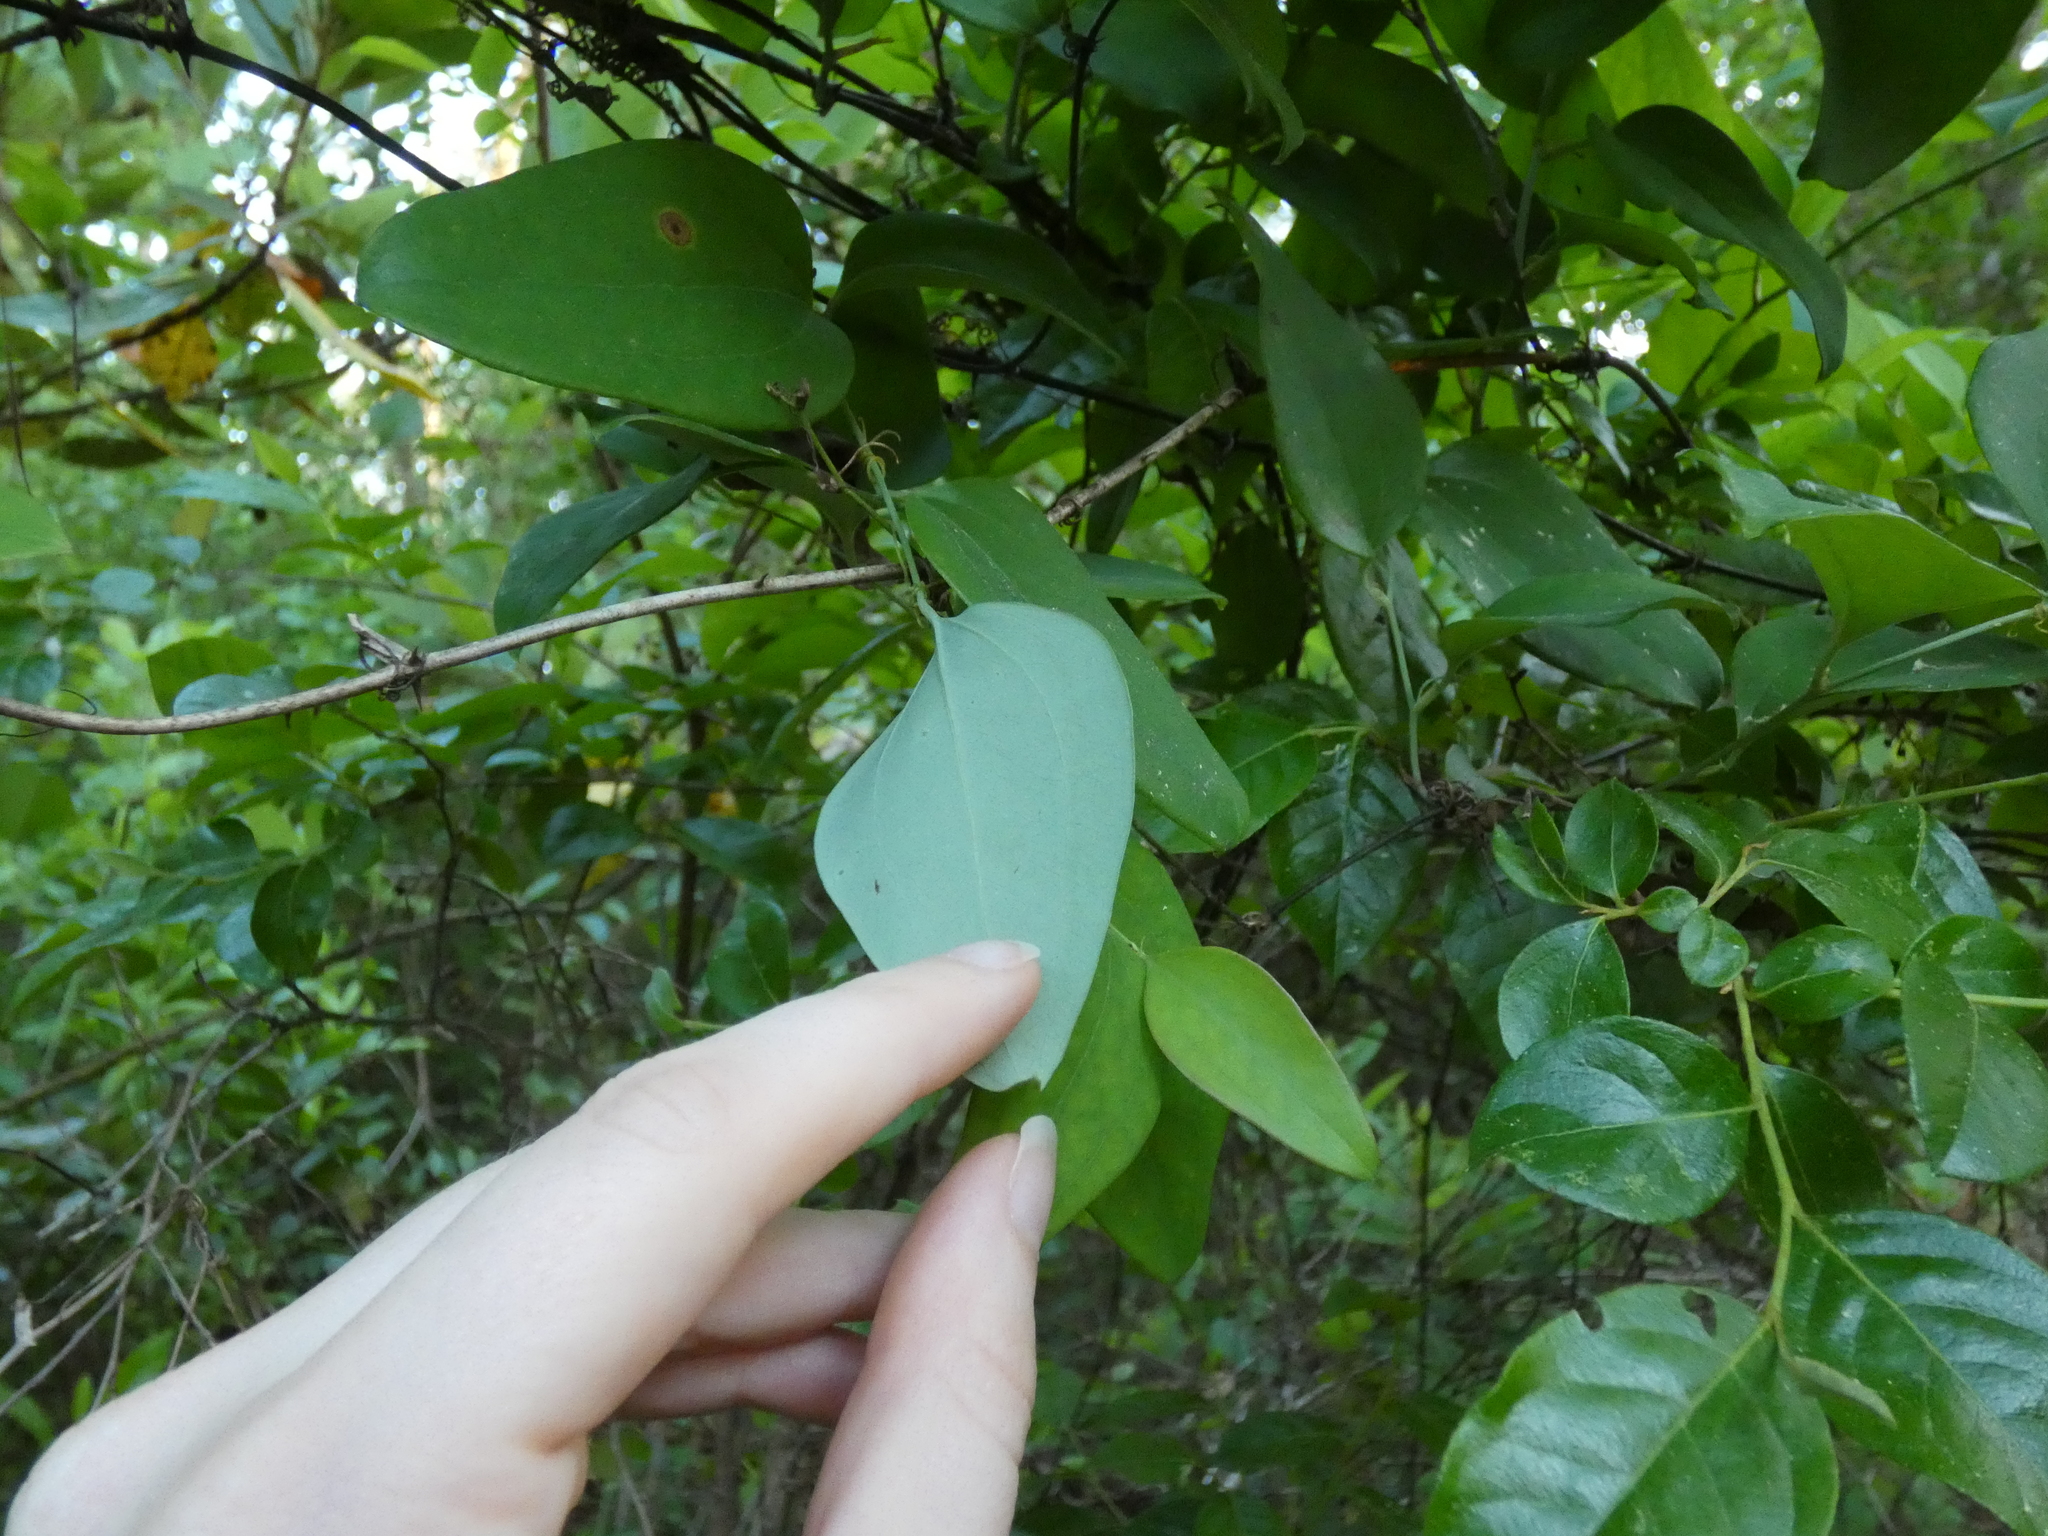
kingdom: Plantae
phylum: Tracheophyta
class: Liliopsida
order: Liliales
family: Smilacaceae
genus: Smilax
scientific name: Smilax glauca
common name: Cat greenbrier
